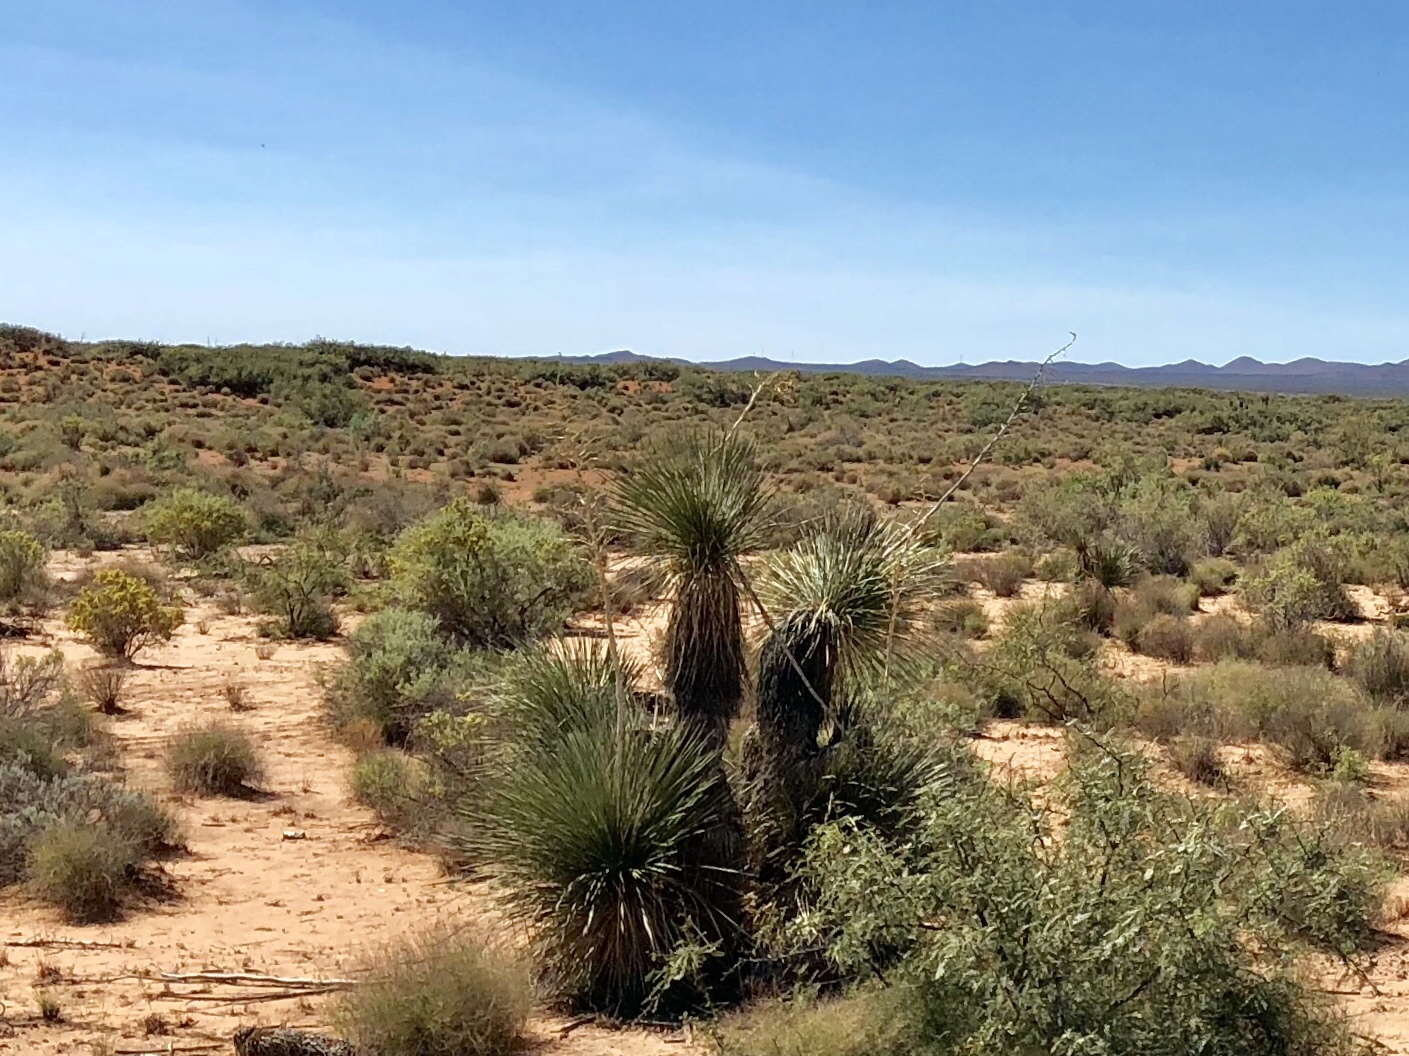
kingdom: Plantae
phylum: Tracheophyta
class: Liliopsida
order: Asparagales
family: Asparagaceae
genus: Yucca
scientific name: Yucca elata
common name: Palmella
